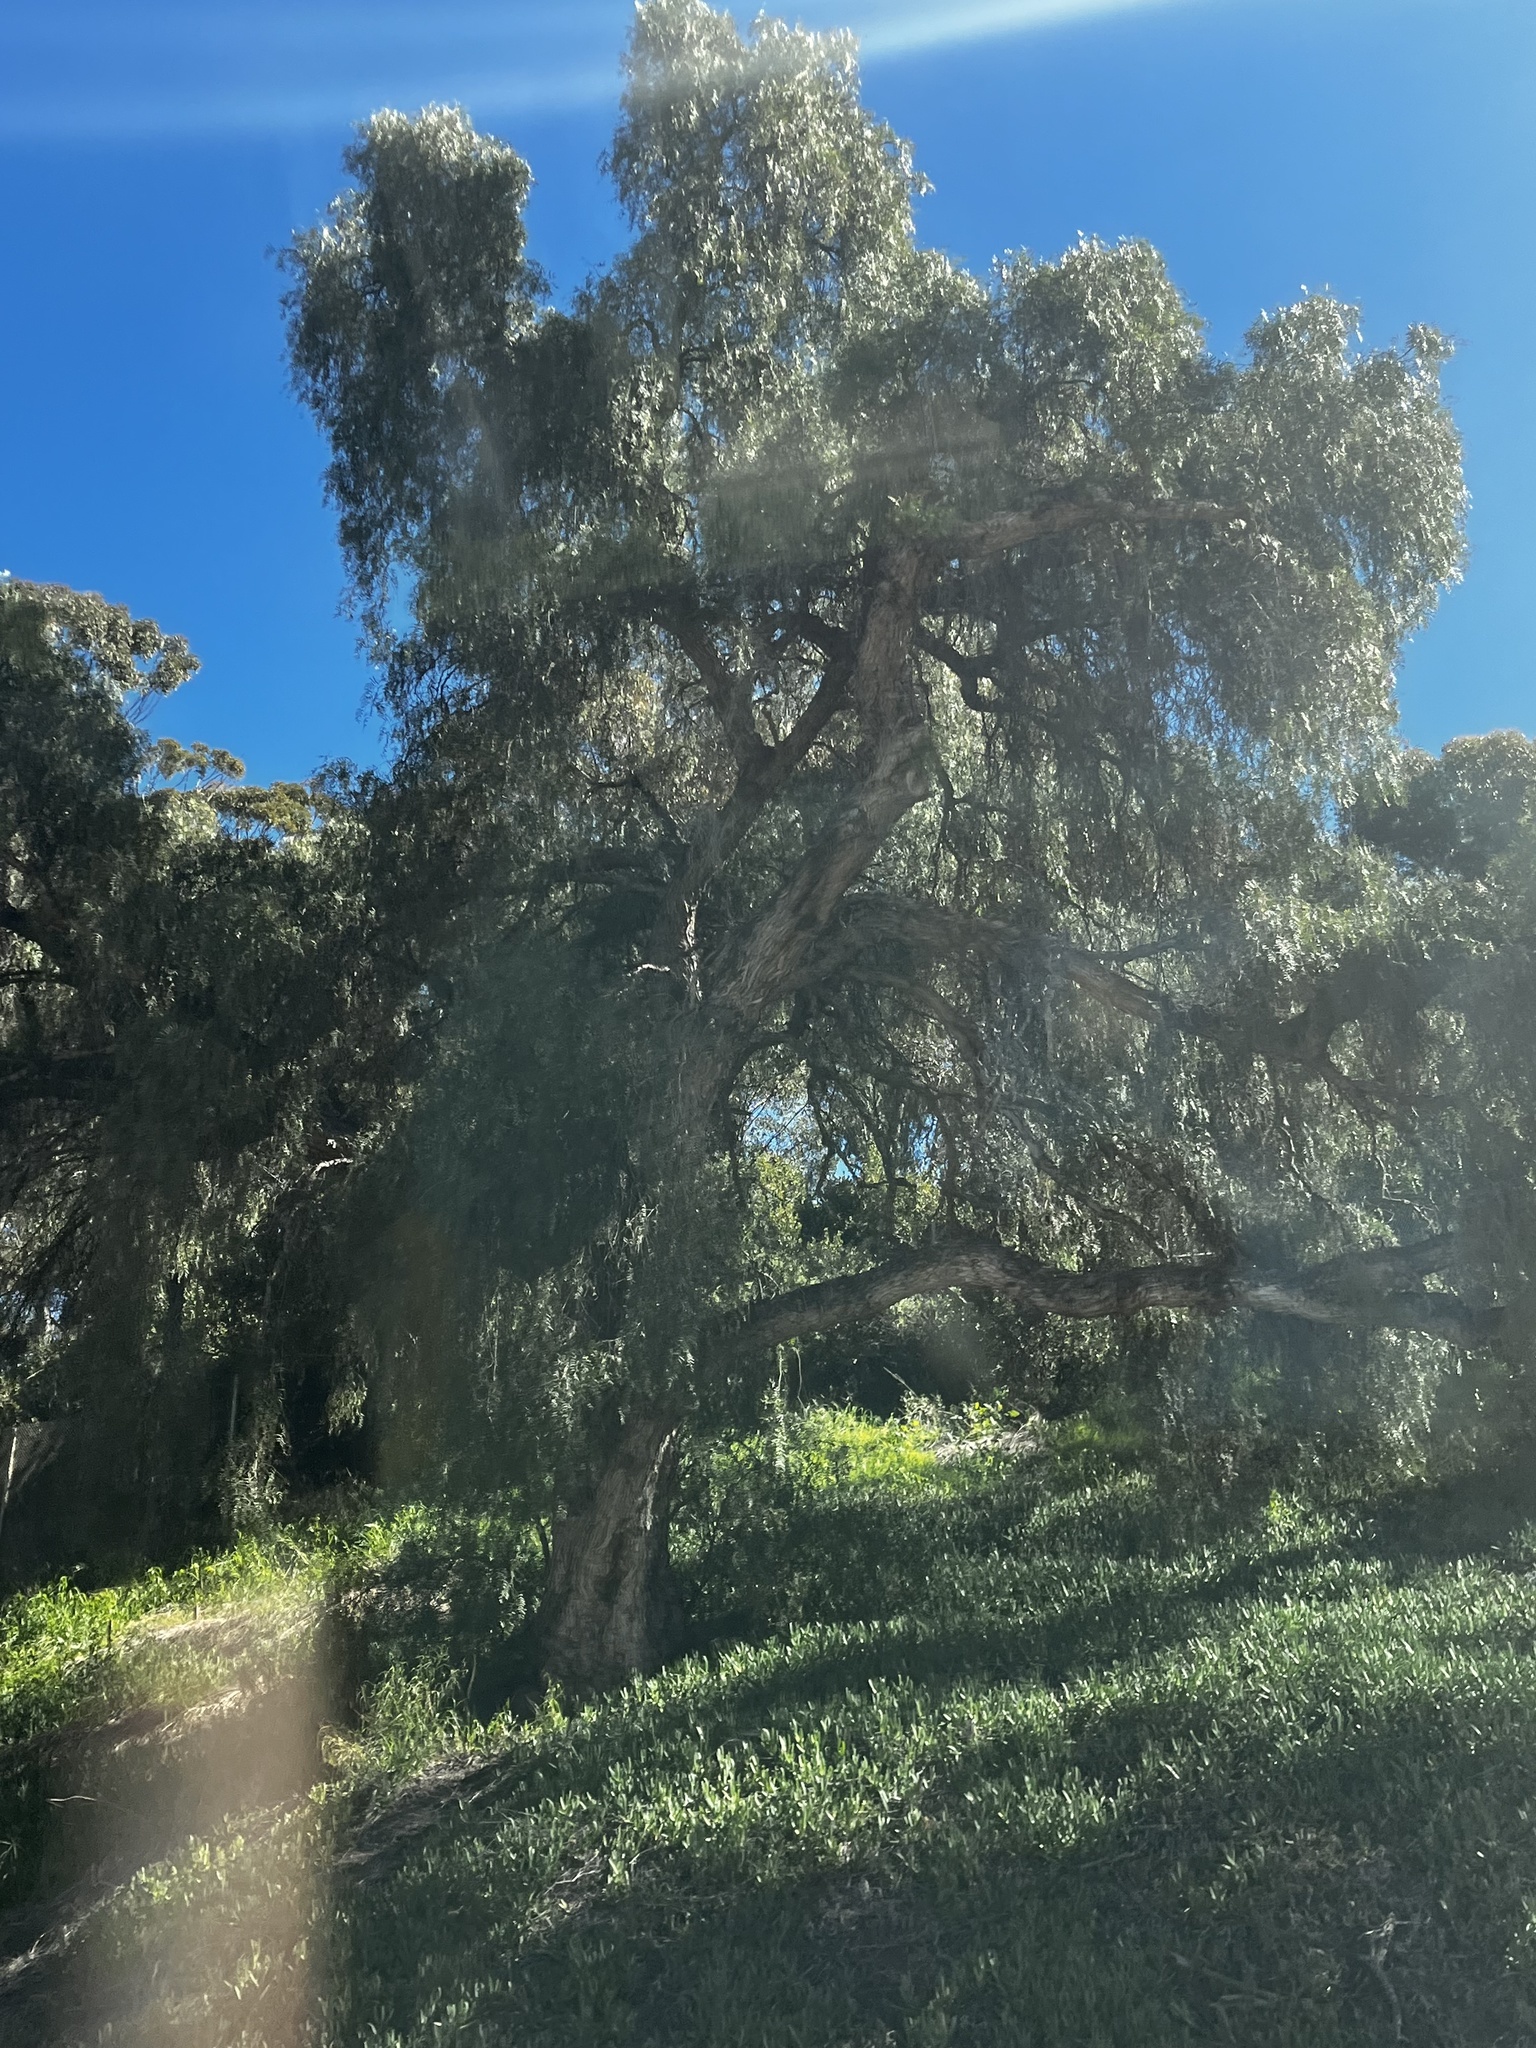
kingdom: Plantae
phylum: Tracheophyta
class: Magnoliopsida
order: Myrtales
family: Myrtaceae
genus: Eucalyptus
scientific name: Eucalyptus camaldulensis
